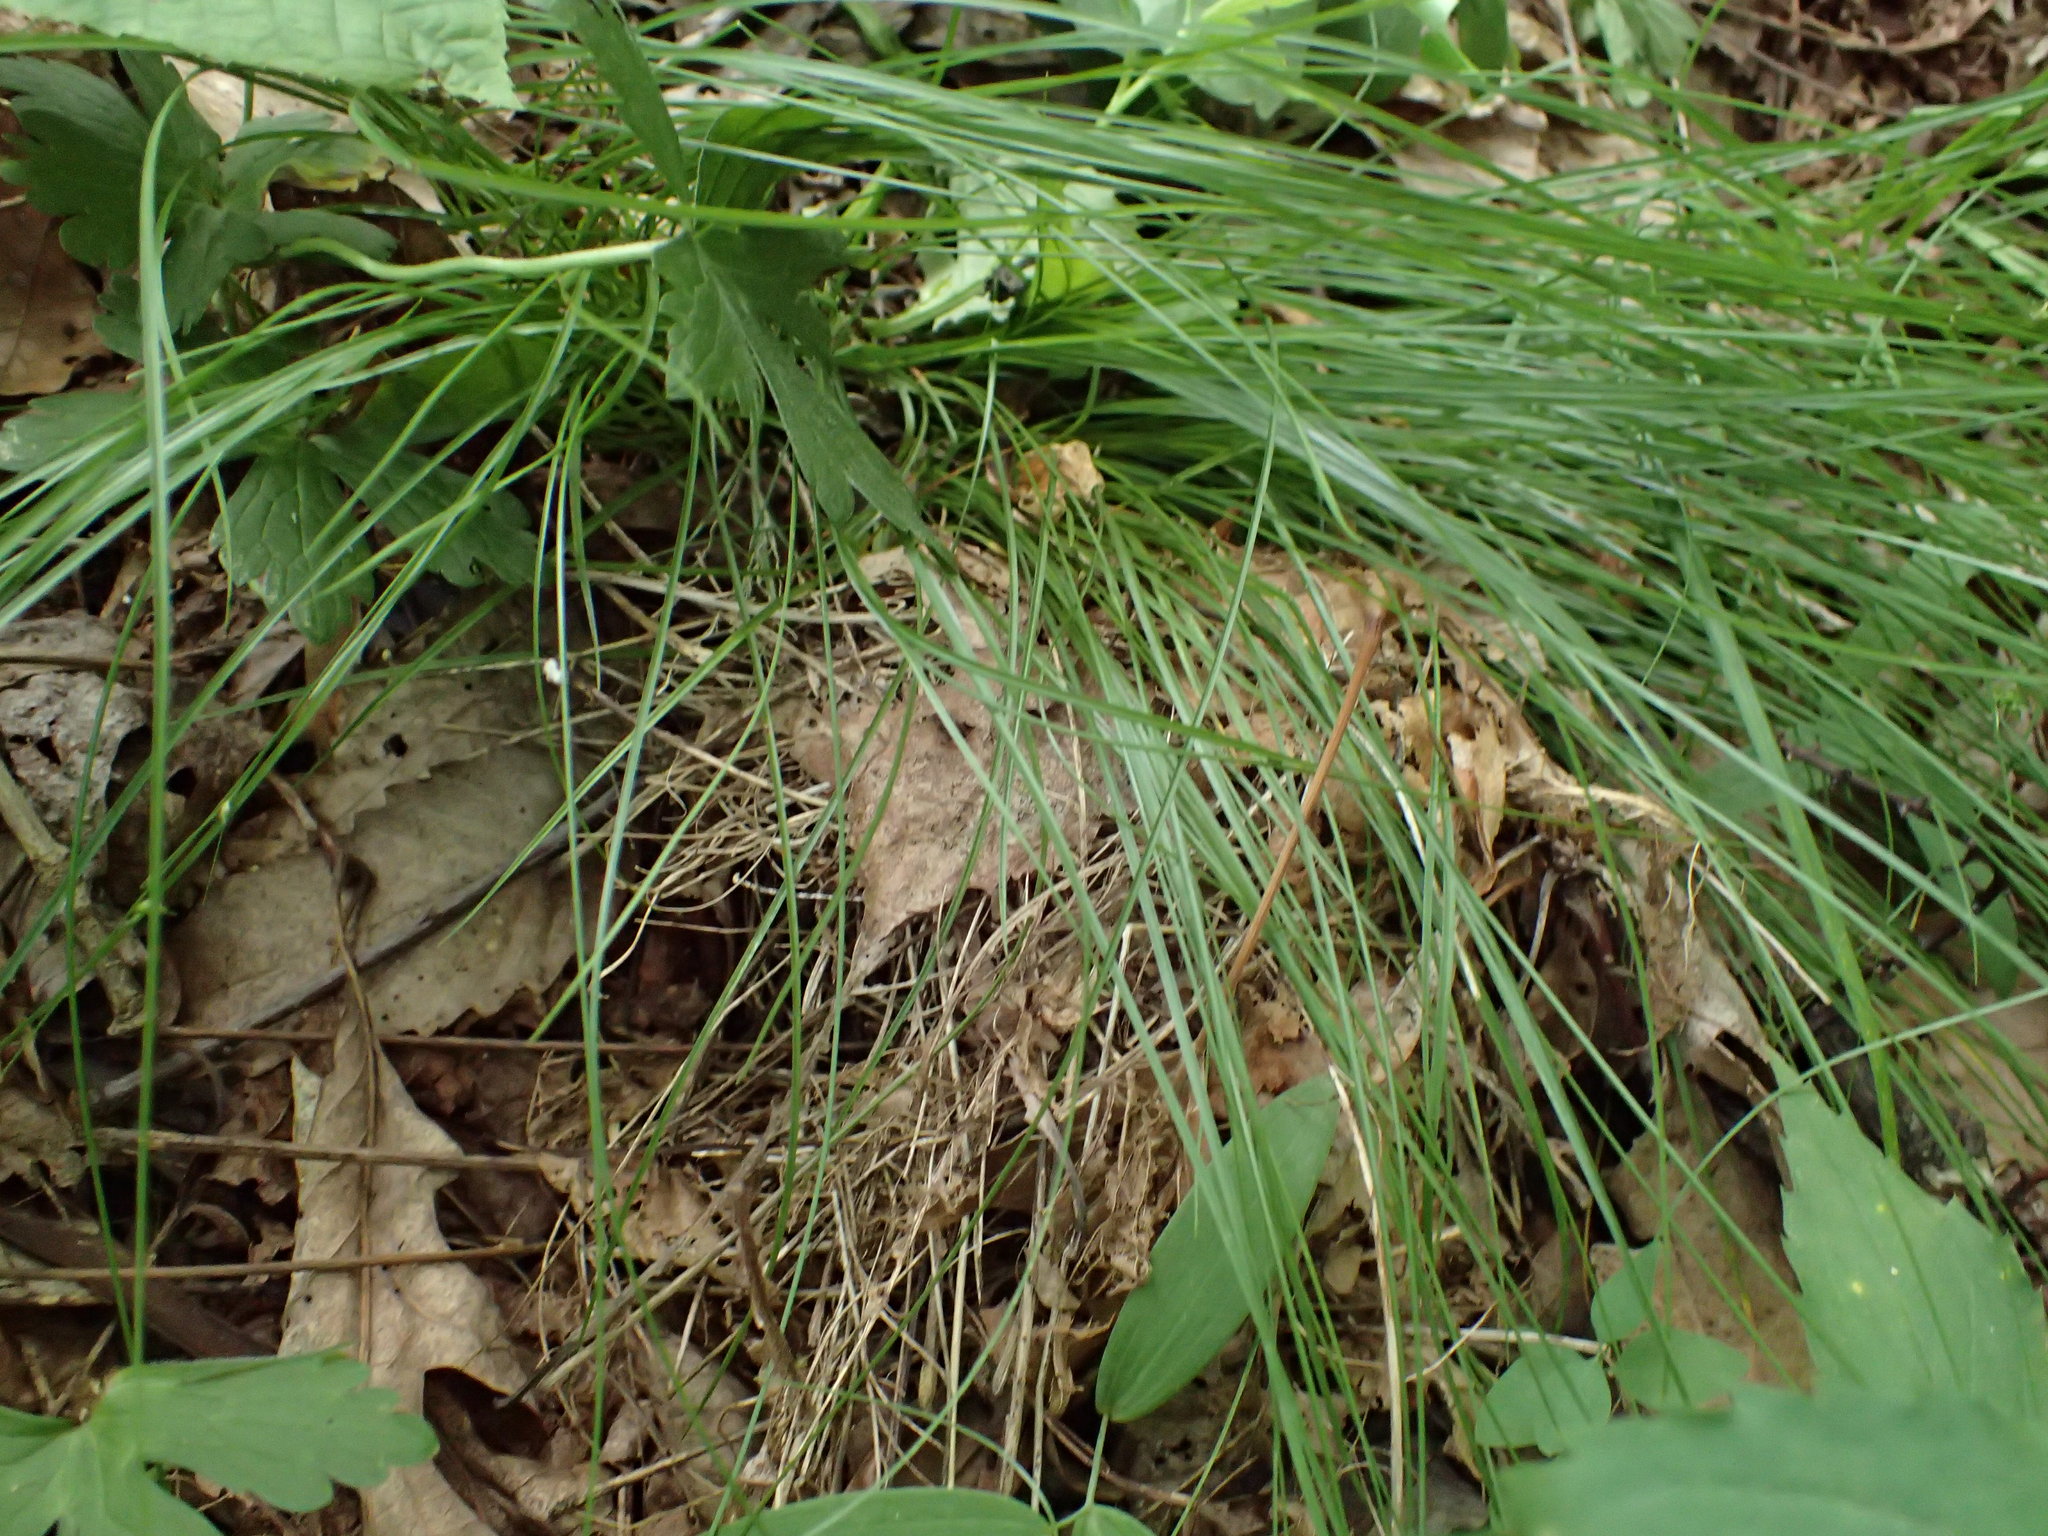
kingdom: Animalia
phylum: Chordata
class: Aves
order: Passeriformes
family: Parulidae
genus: Seiurus
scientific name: Seiurus aurocapilla
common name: Ovenbird
